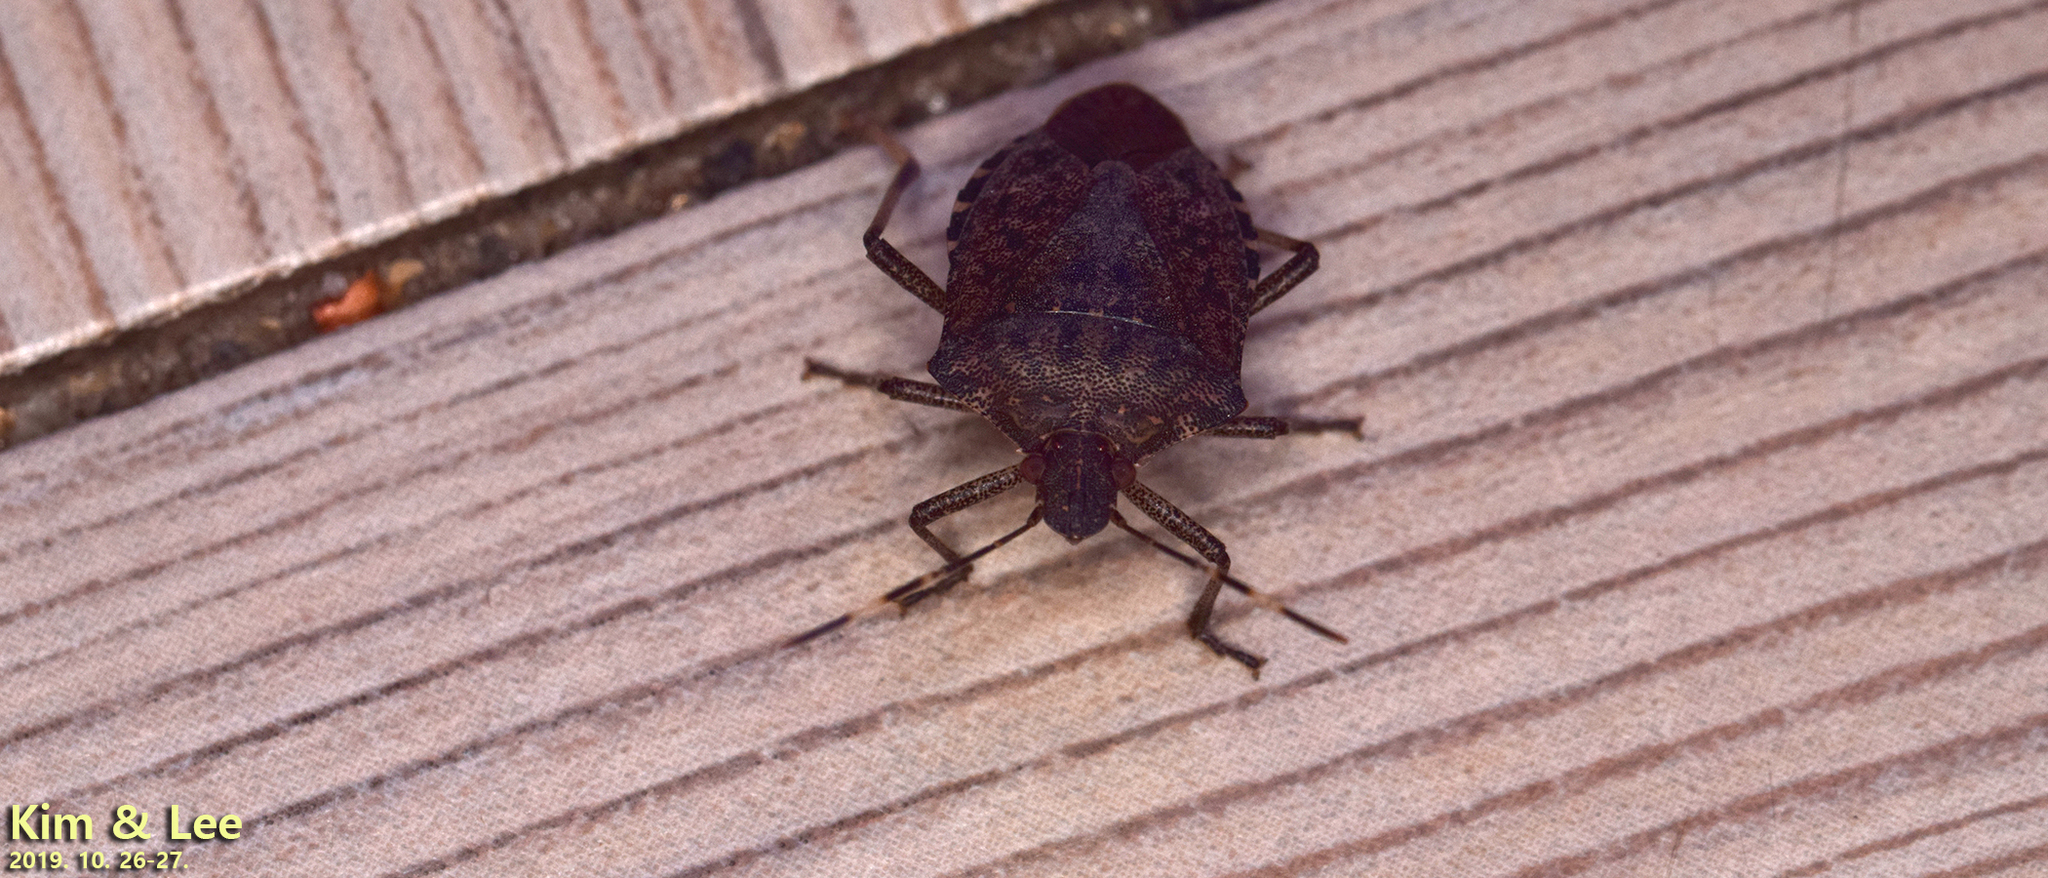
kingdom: Animalia
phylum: Arthropoda
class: Insecta
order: Hemiptera
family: Pentatomidae
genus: Halyomorpha
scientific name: Halyomorpha halys
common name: Brown marmorated stink bug
